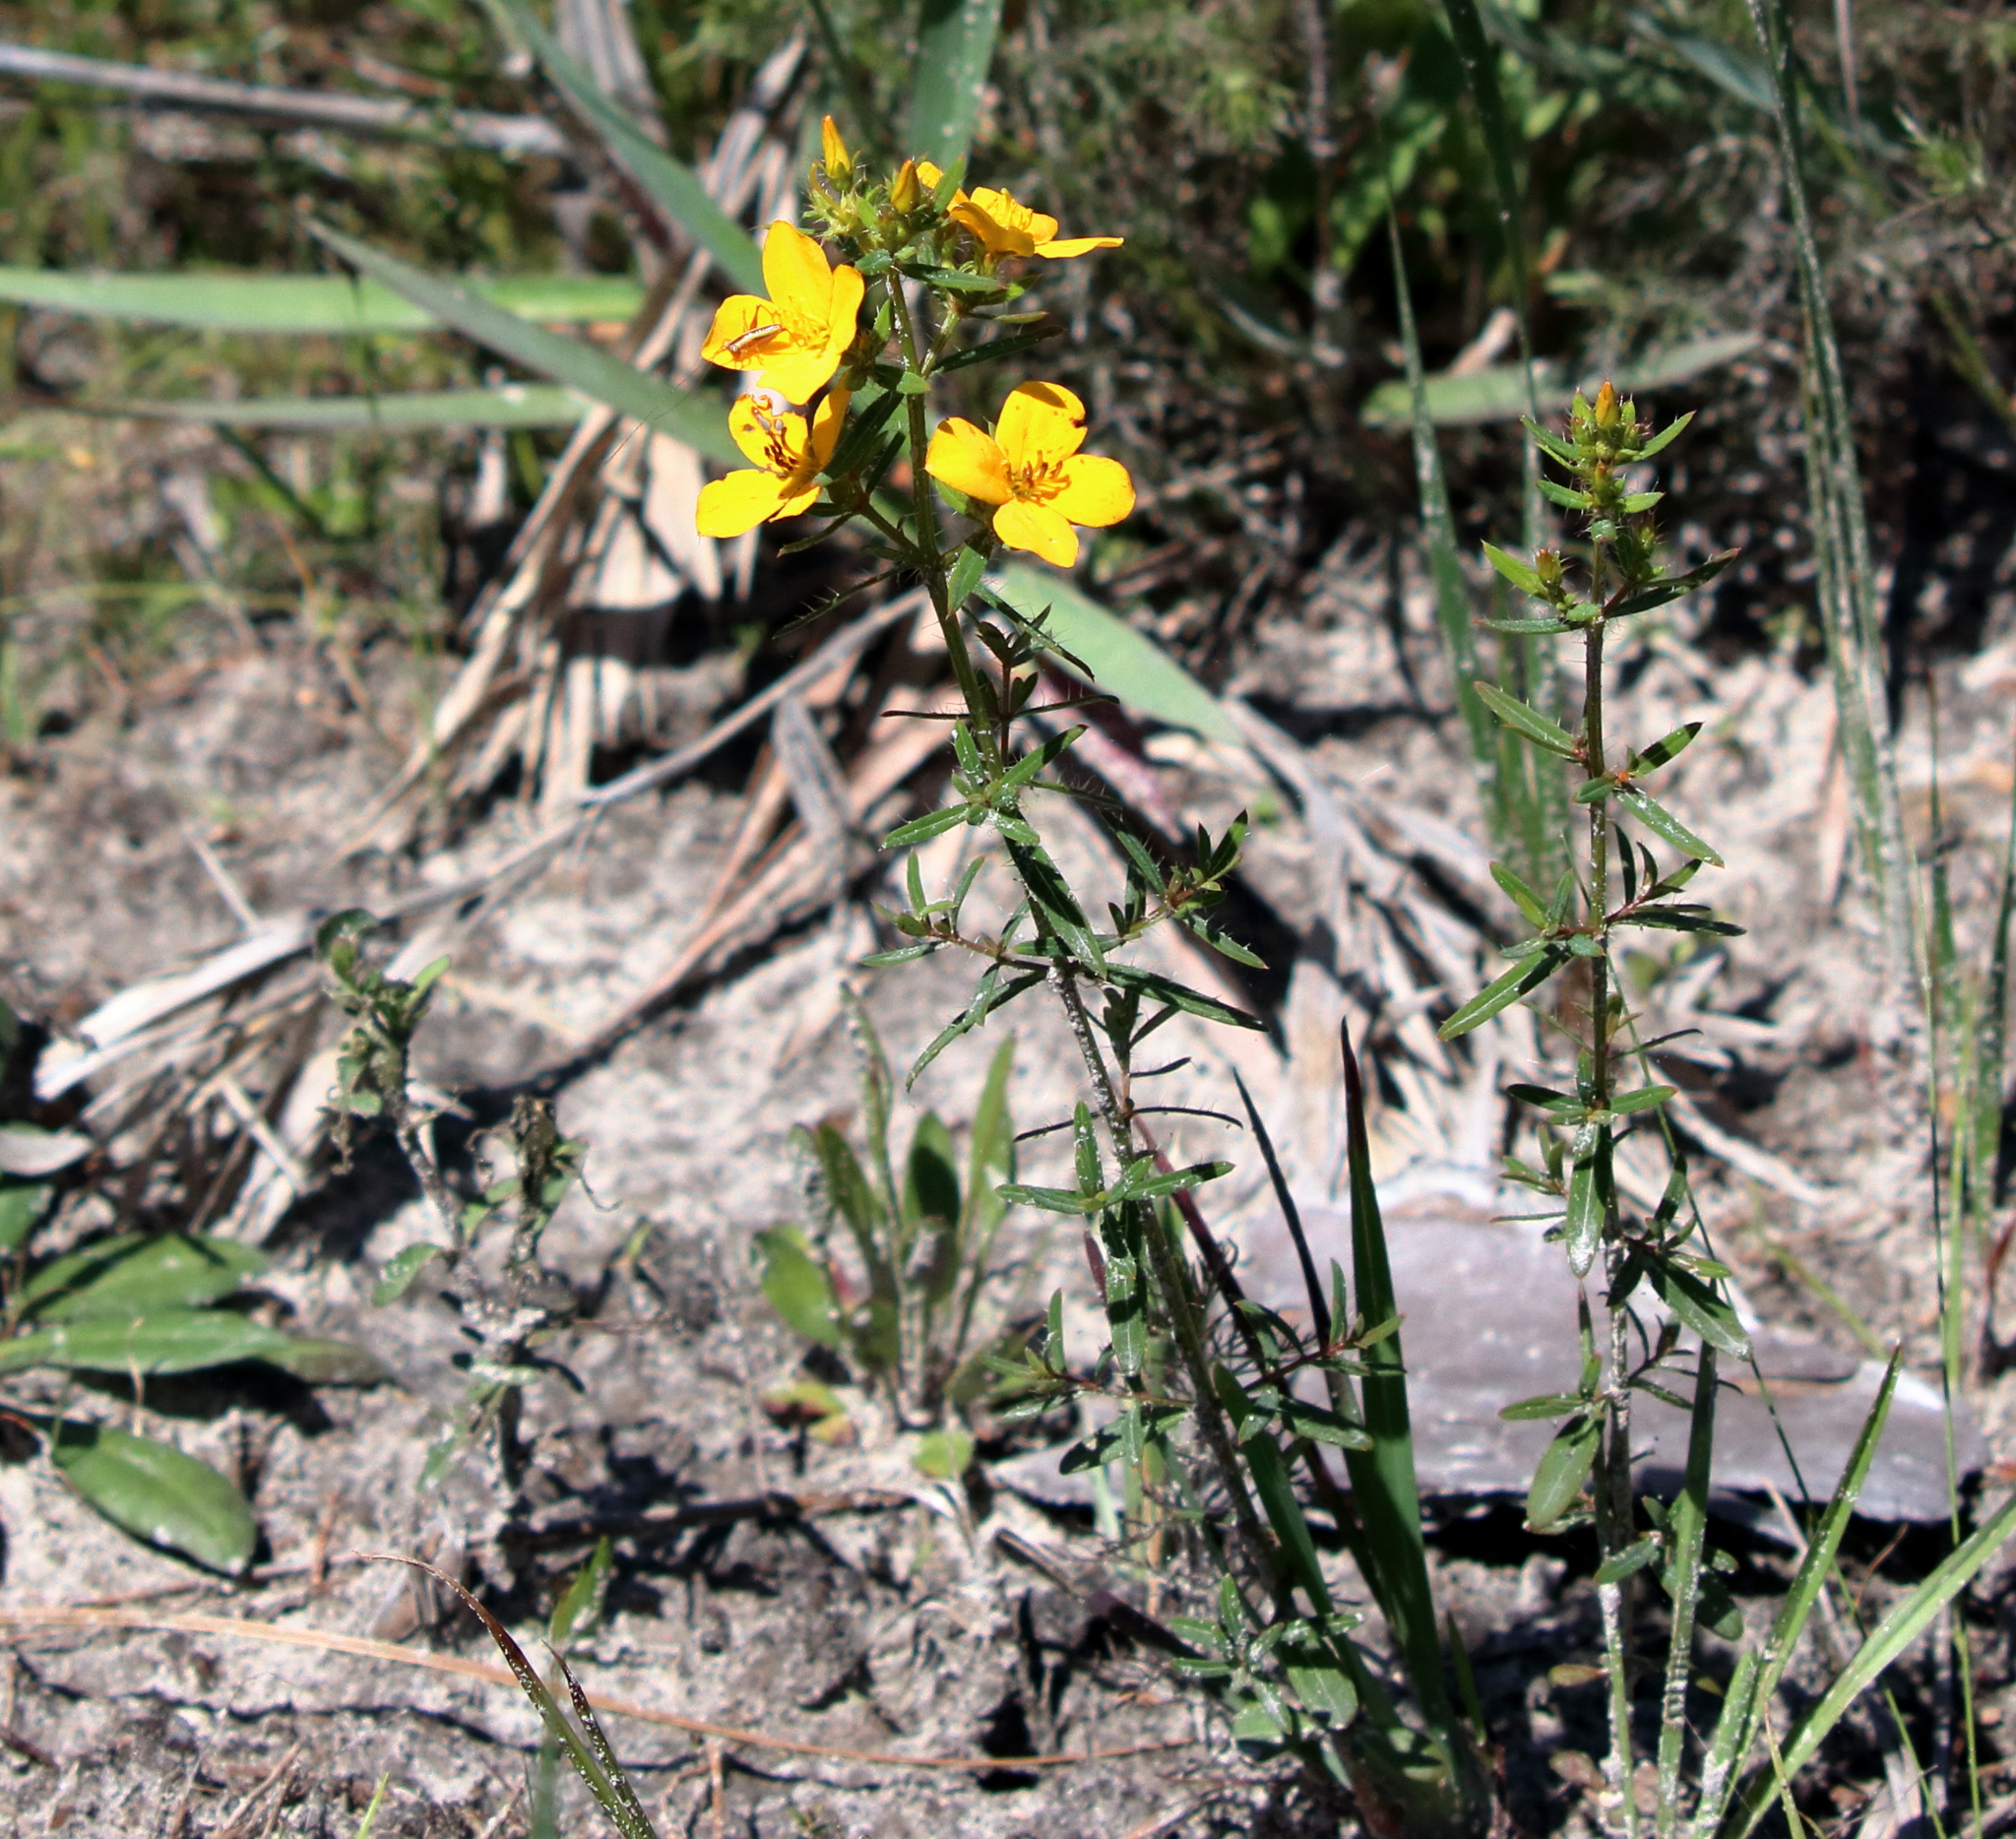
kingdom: Plantae
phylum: Tracheophyta
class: Magnoliopsida
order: Myrtales
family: Melastomataceae
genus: Rhexia
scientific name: Rhexia lutea
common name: Golden meadow-beauty
